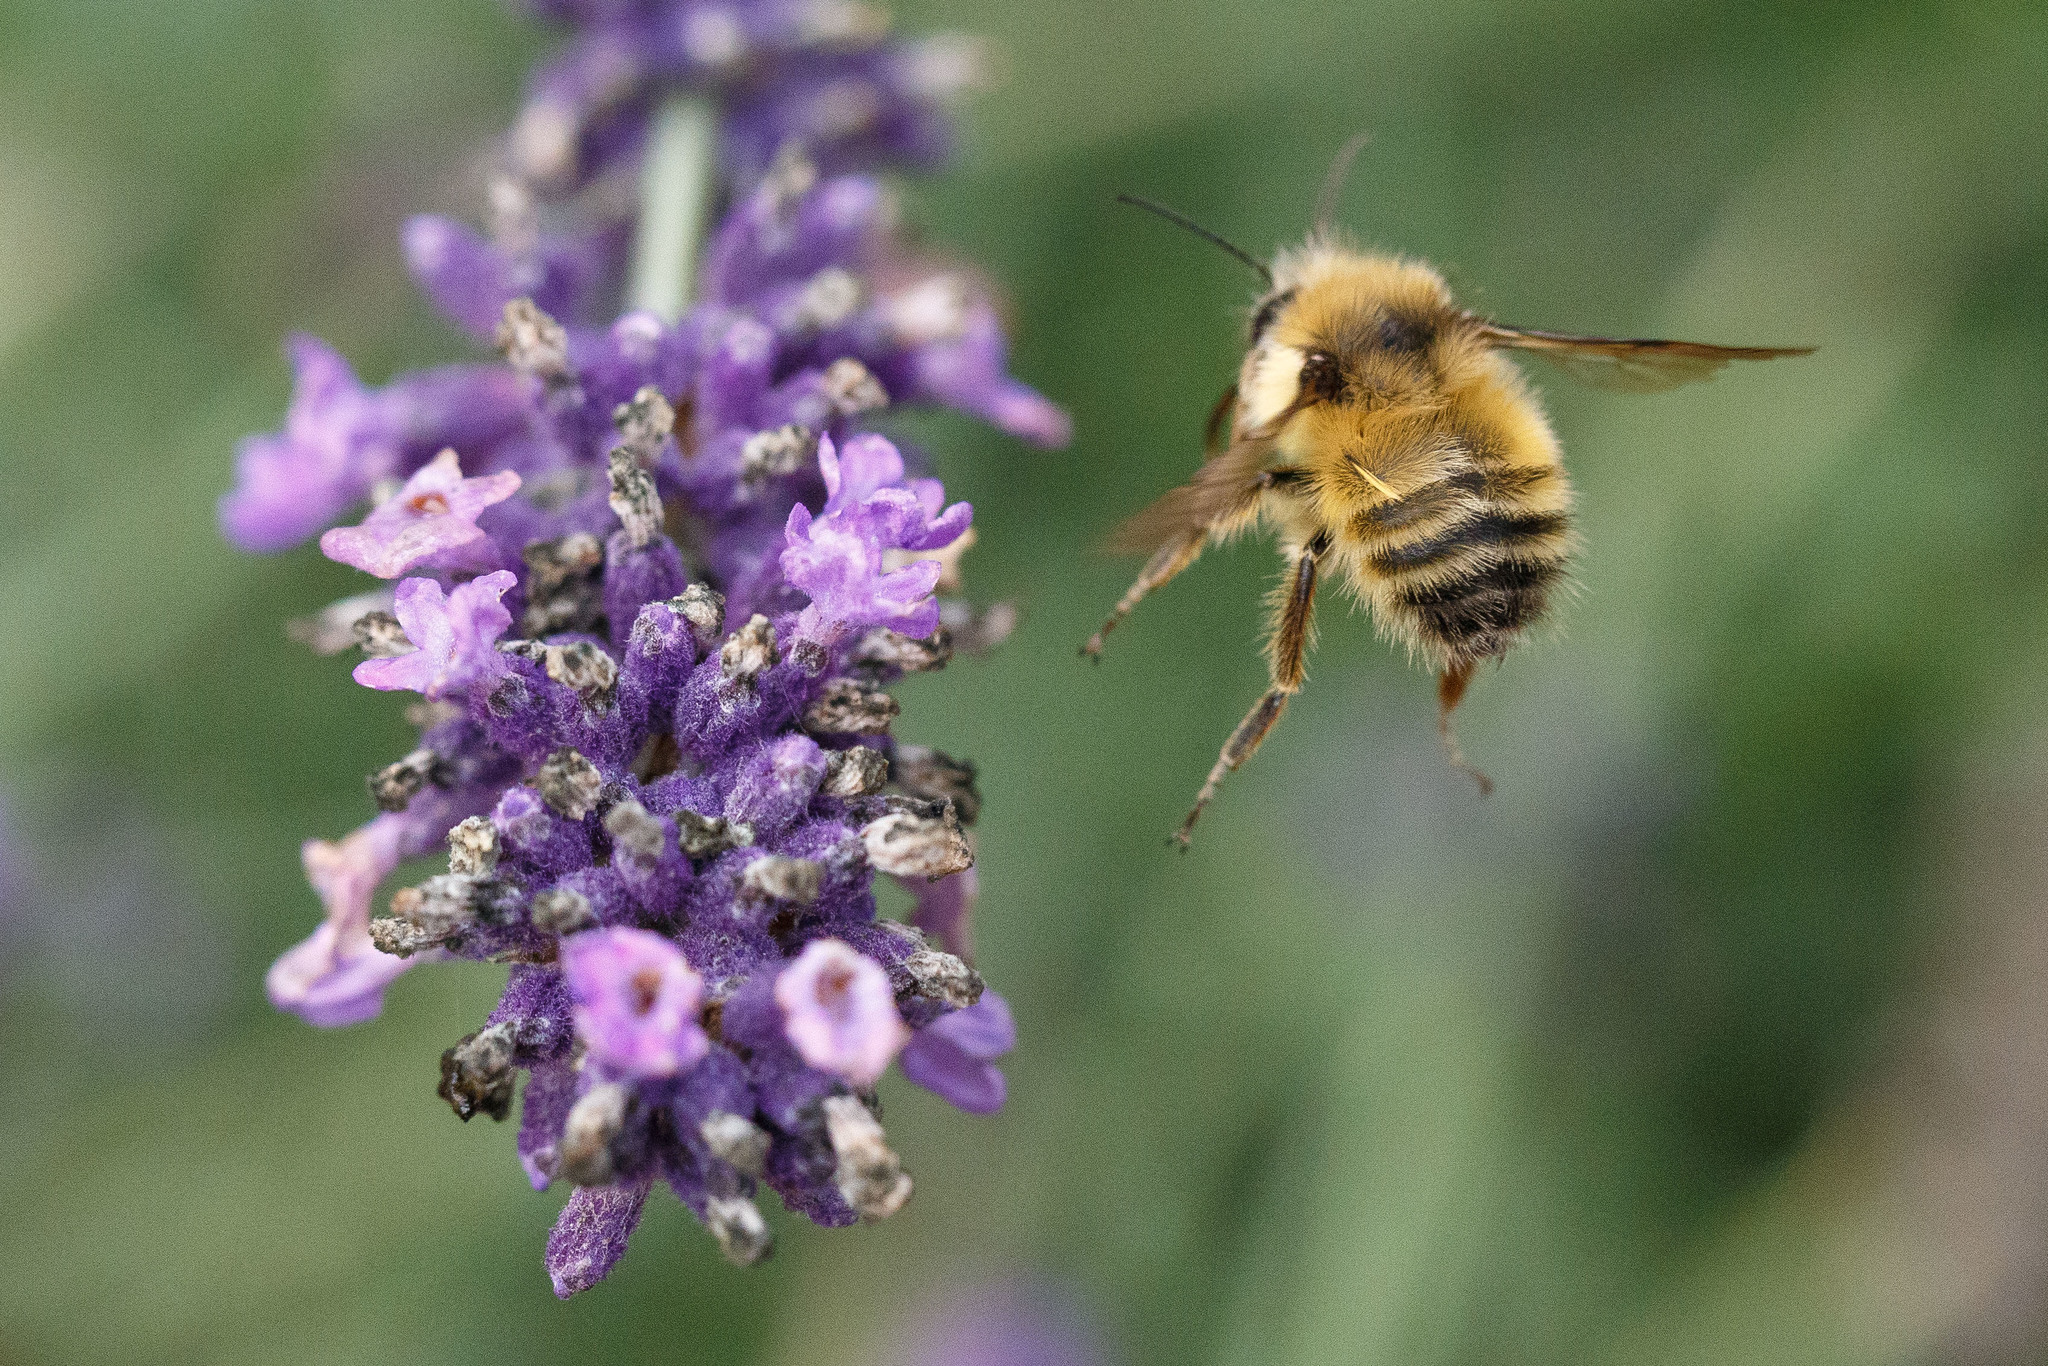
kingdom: Animalia
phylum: Arthropoda
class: Insecta
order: Hymenoptera
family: Apidae
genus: Bombus
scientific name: Bombus flavifrons
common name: Yellow head bumble bee
